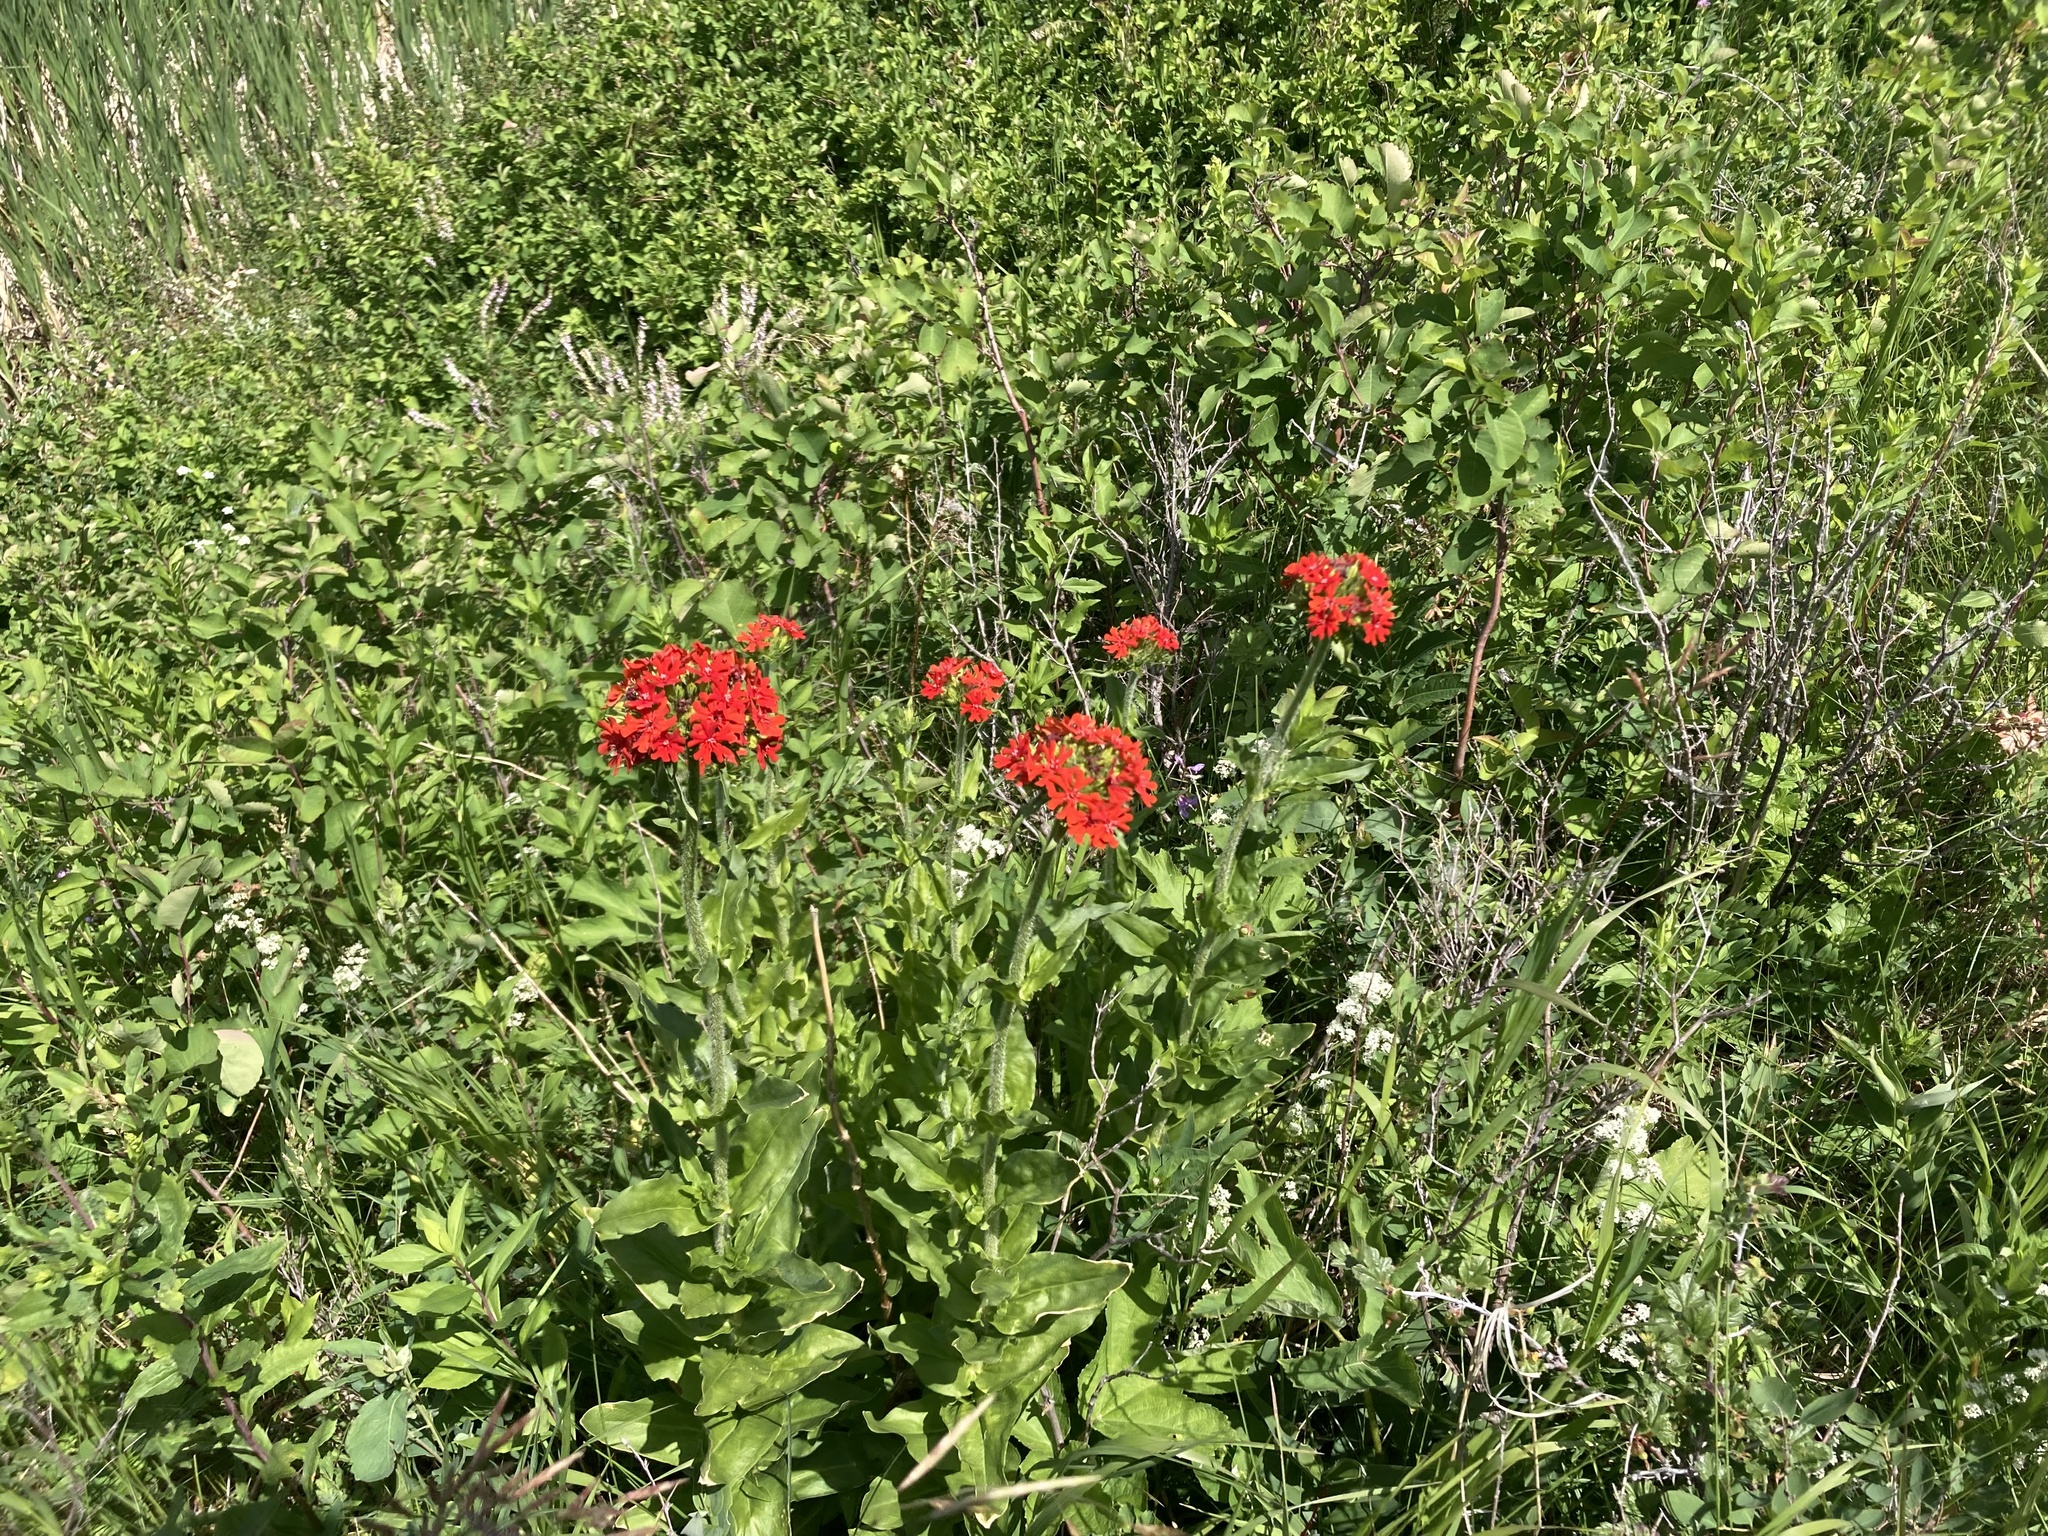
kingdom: Plantae
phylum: Tracheophyta
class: Magnoliopsida
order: Caryophyllales
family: Caryophyllaceae
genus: Silene
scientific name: Silene chalcedonica
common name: Maltese-cross
